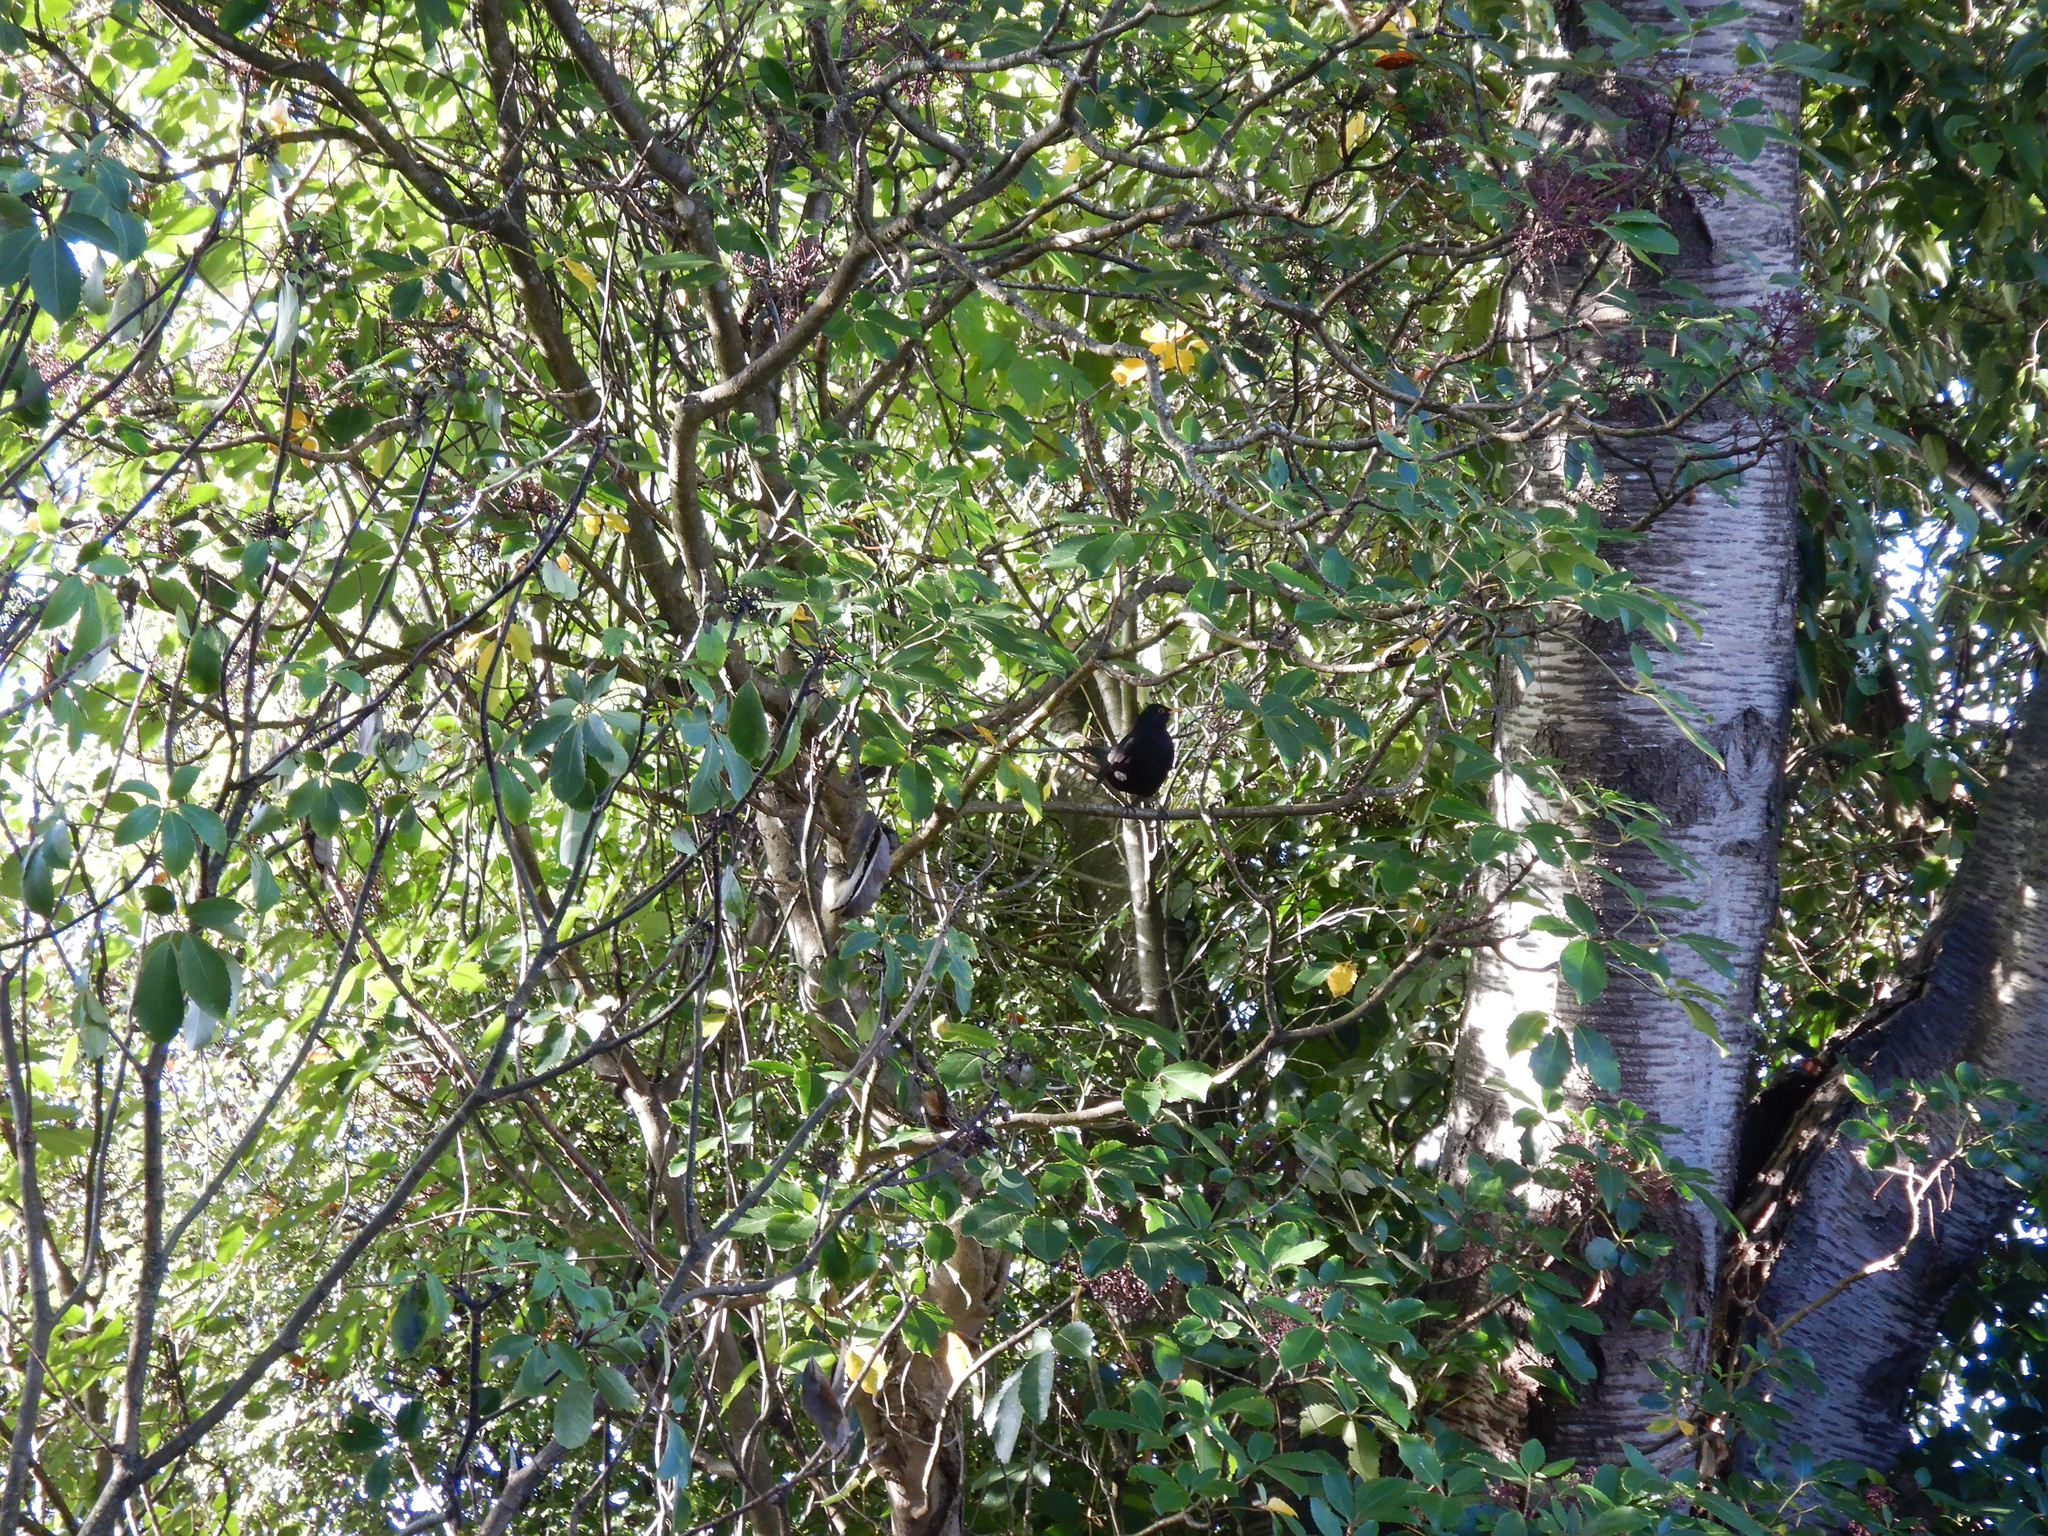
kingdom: Animalia
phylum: Chordata
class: Aves
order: Passeriformes
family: Turdidae
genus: Turdus
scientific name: Turdus merula
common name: Common blackbird
